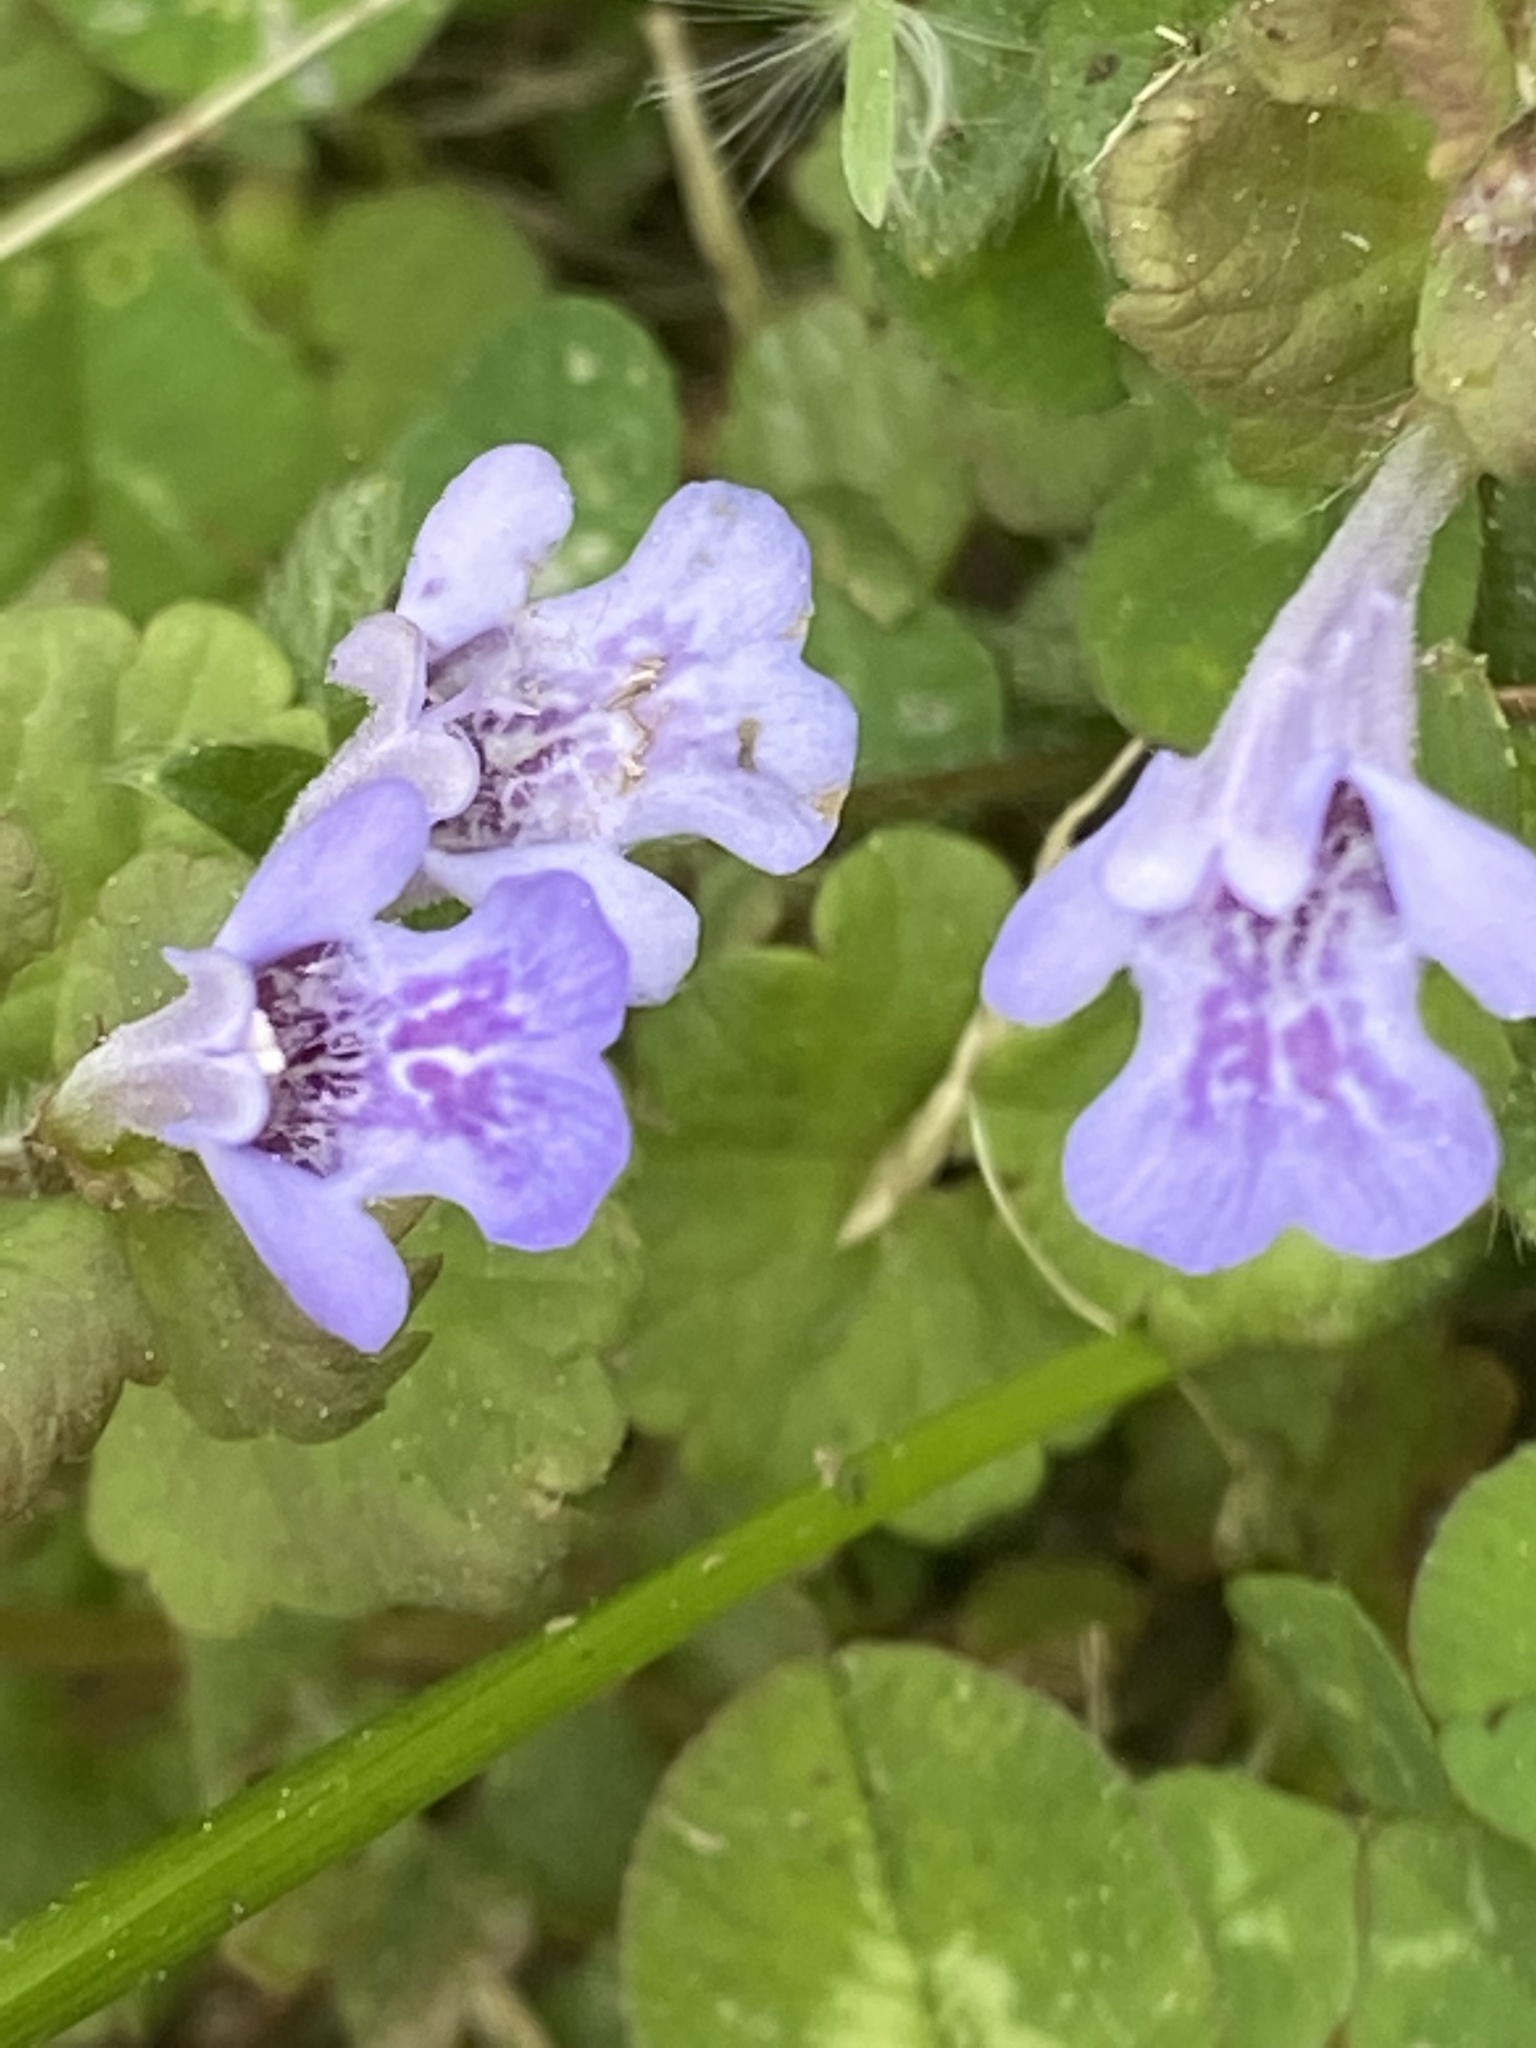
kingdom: Plantae
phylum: Tracheophyta
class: Magnoliopsida
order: Lamiales
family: Lamiaceae
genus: Glechoma
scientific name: Glechoma hederacea
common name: Ground ivy
